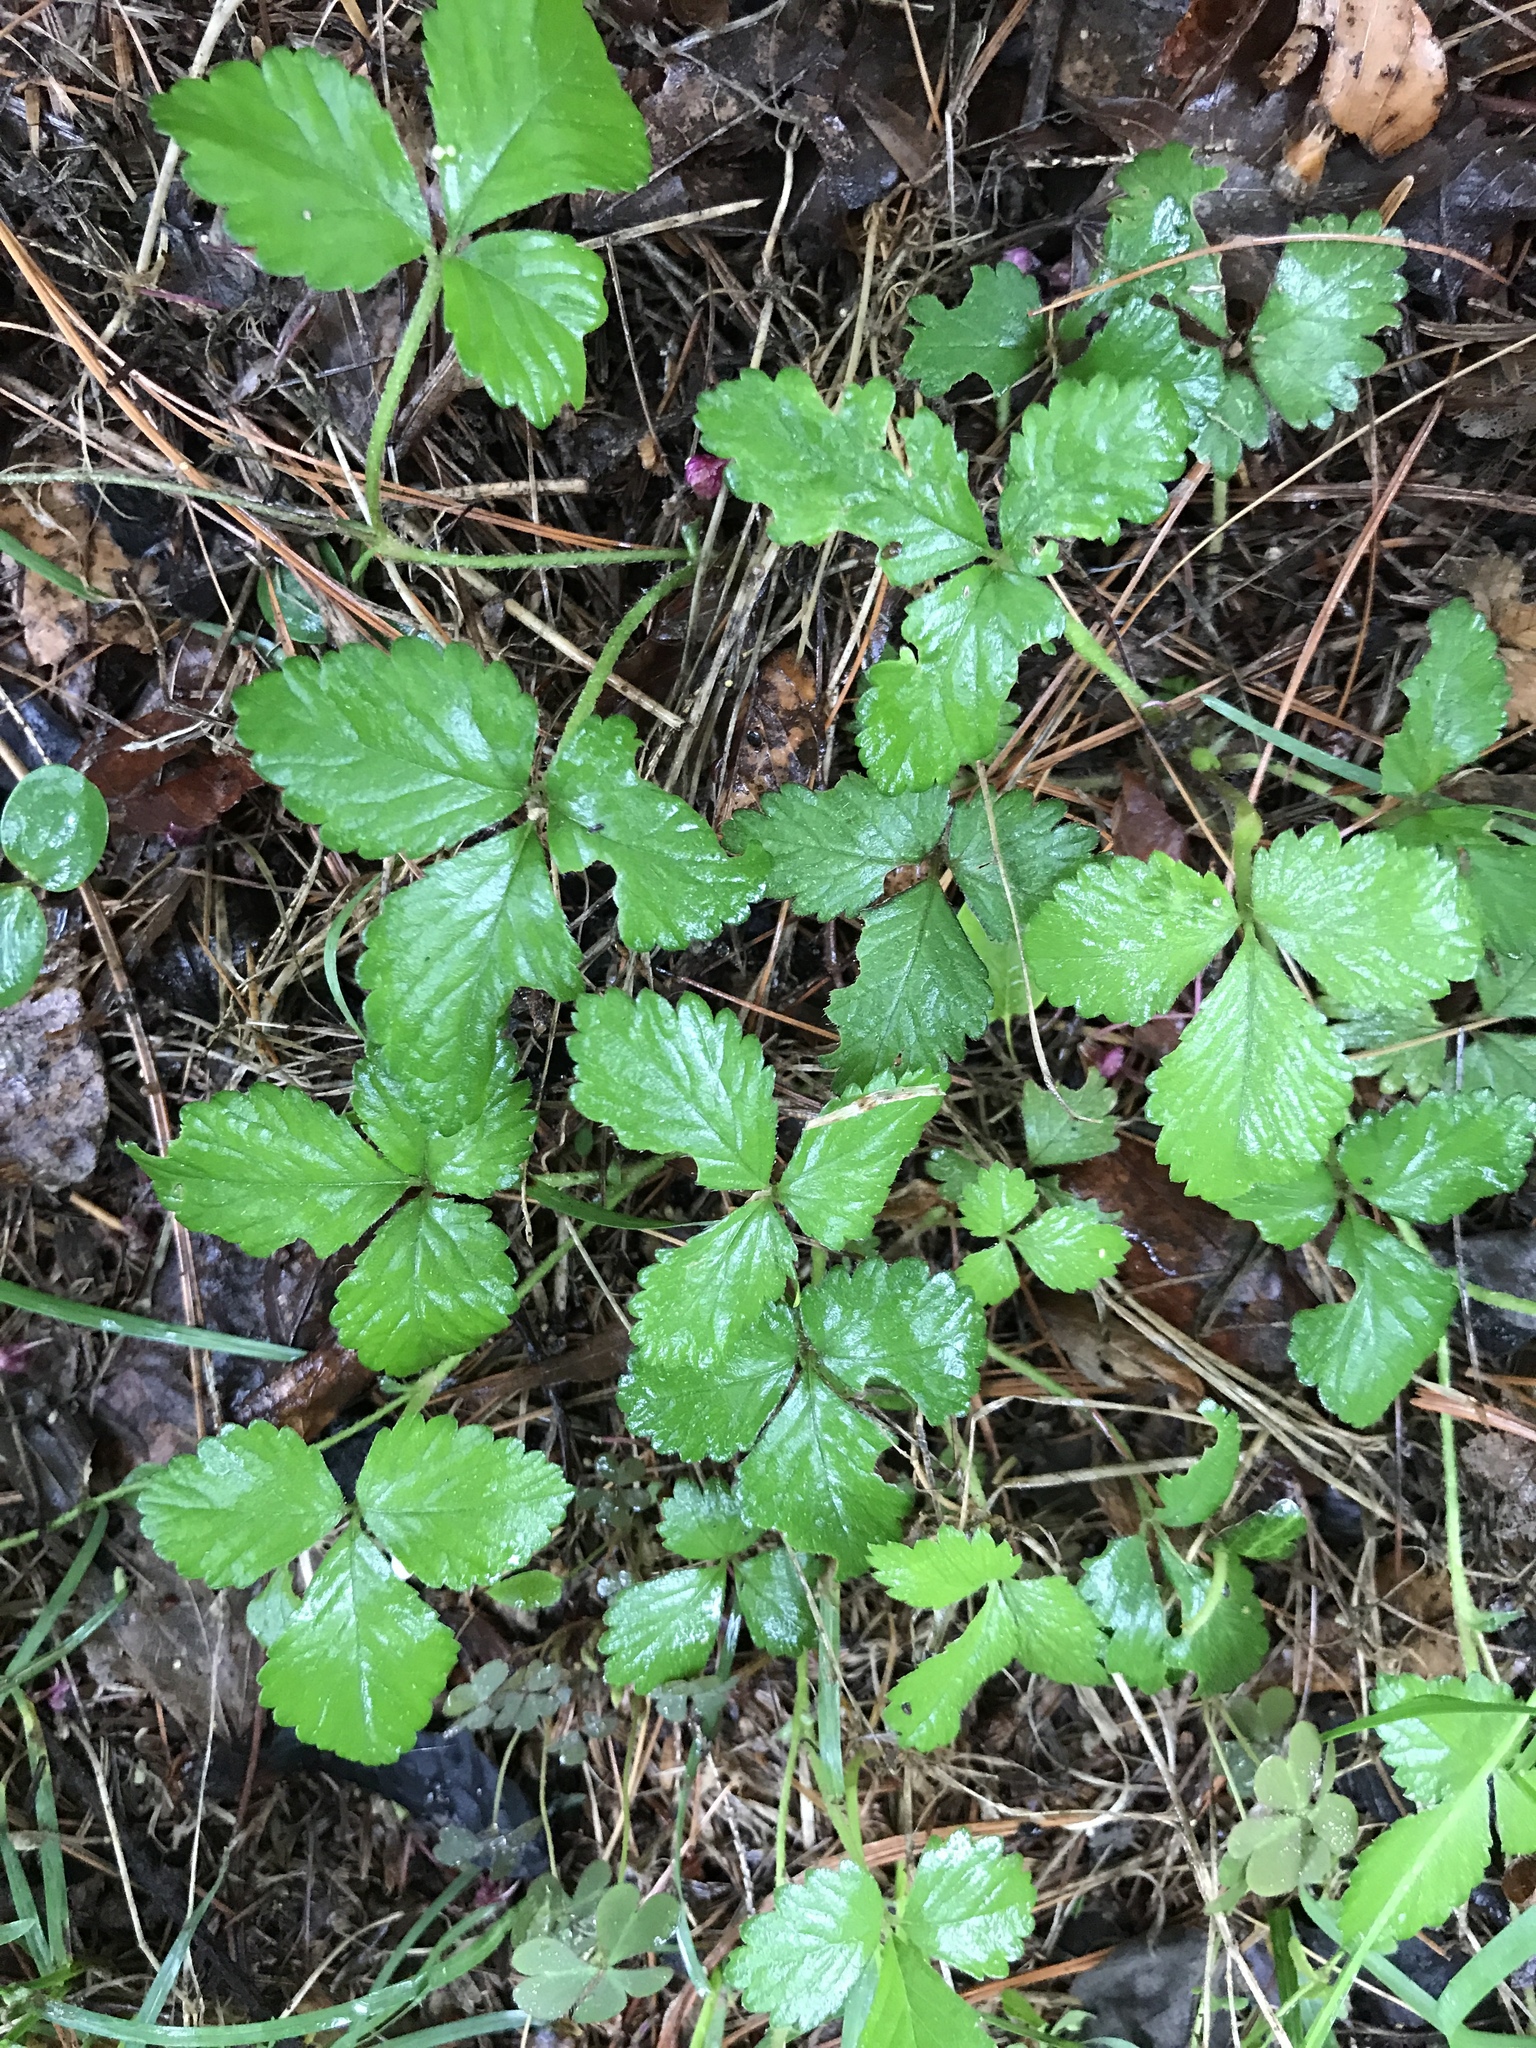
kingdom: Plantae
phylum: Tracheophyta
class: Magnoliopsida
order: Rosales
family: Rosaceae
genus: Potentilla
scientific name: Potentilla indica
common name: Yellow-flowered strawberry
